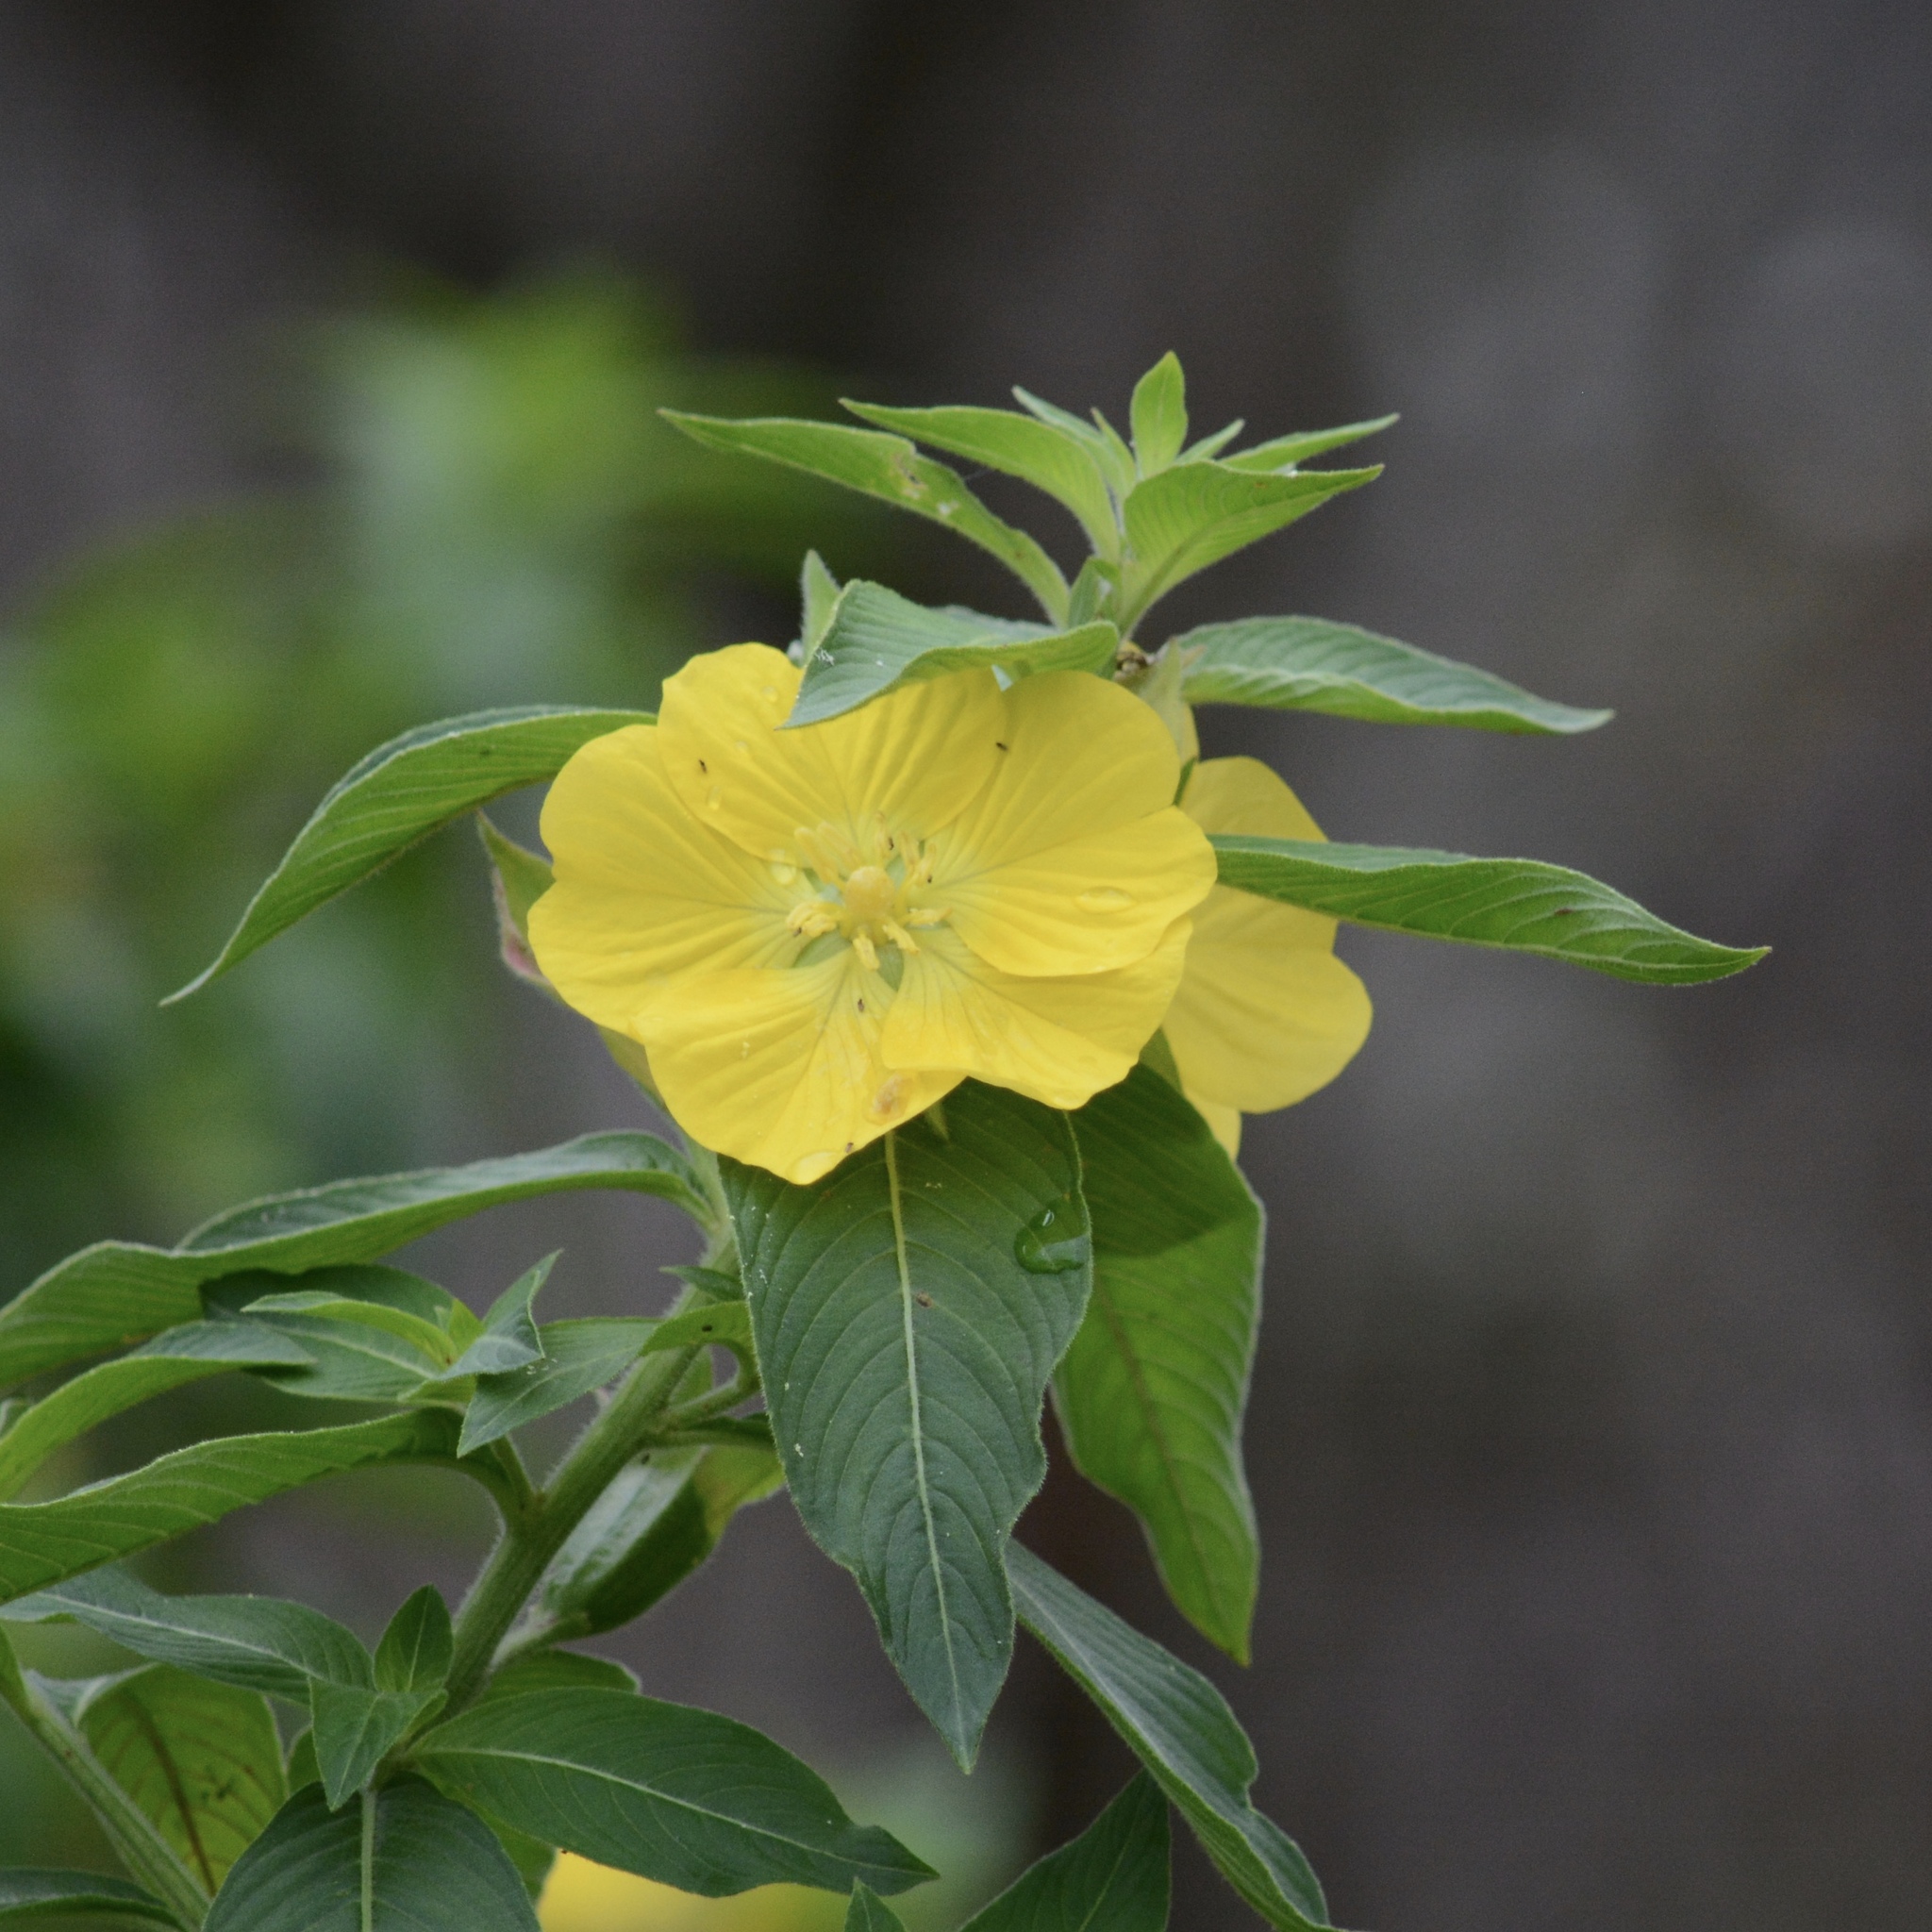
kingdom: Plantae
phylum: Tracheophyta
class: Magnoliopsida
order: Myrtales
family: Onagraceae
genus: Ludwigia
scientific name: Ludwigia peruviana
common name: Peruvian primrose-willow
